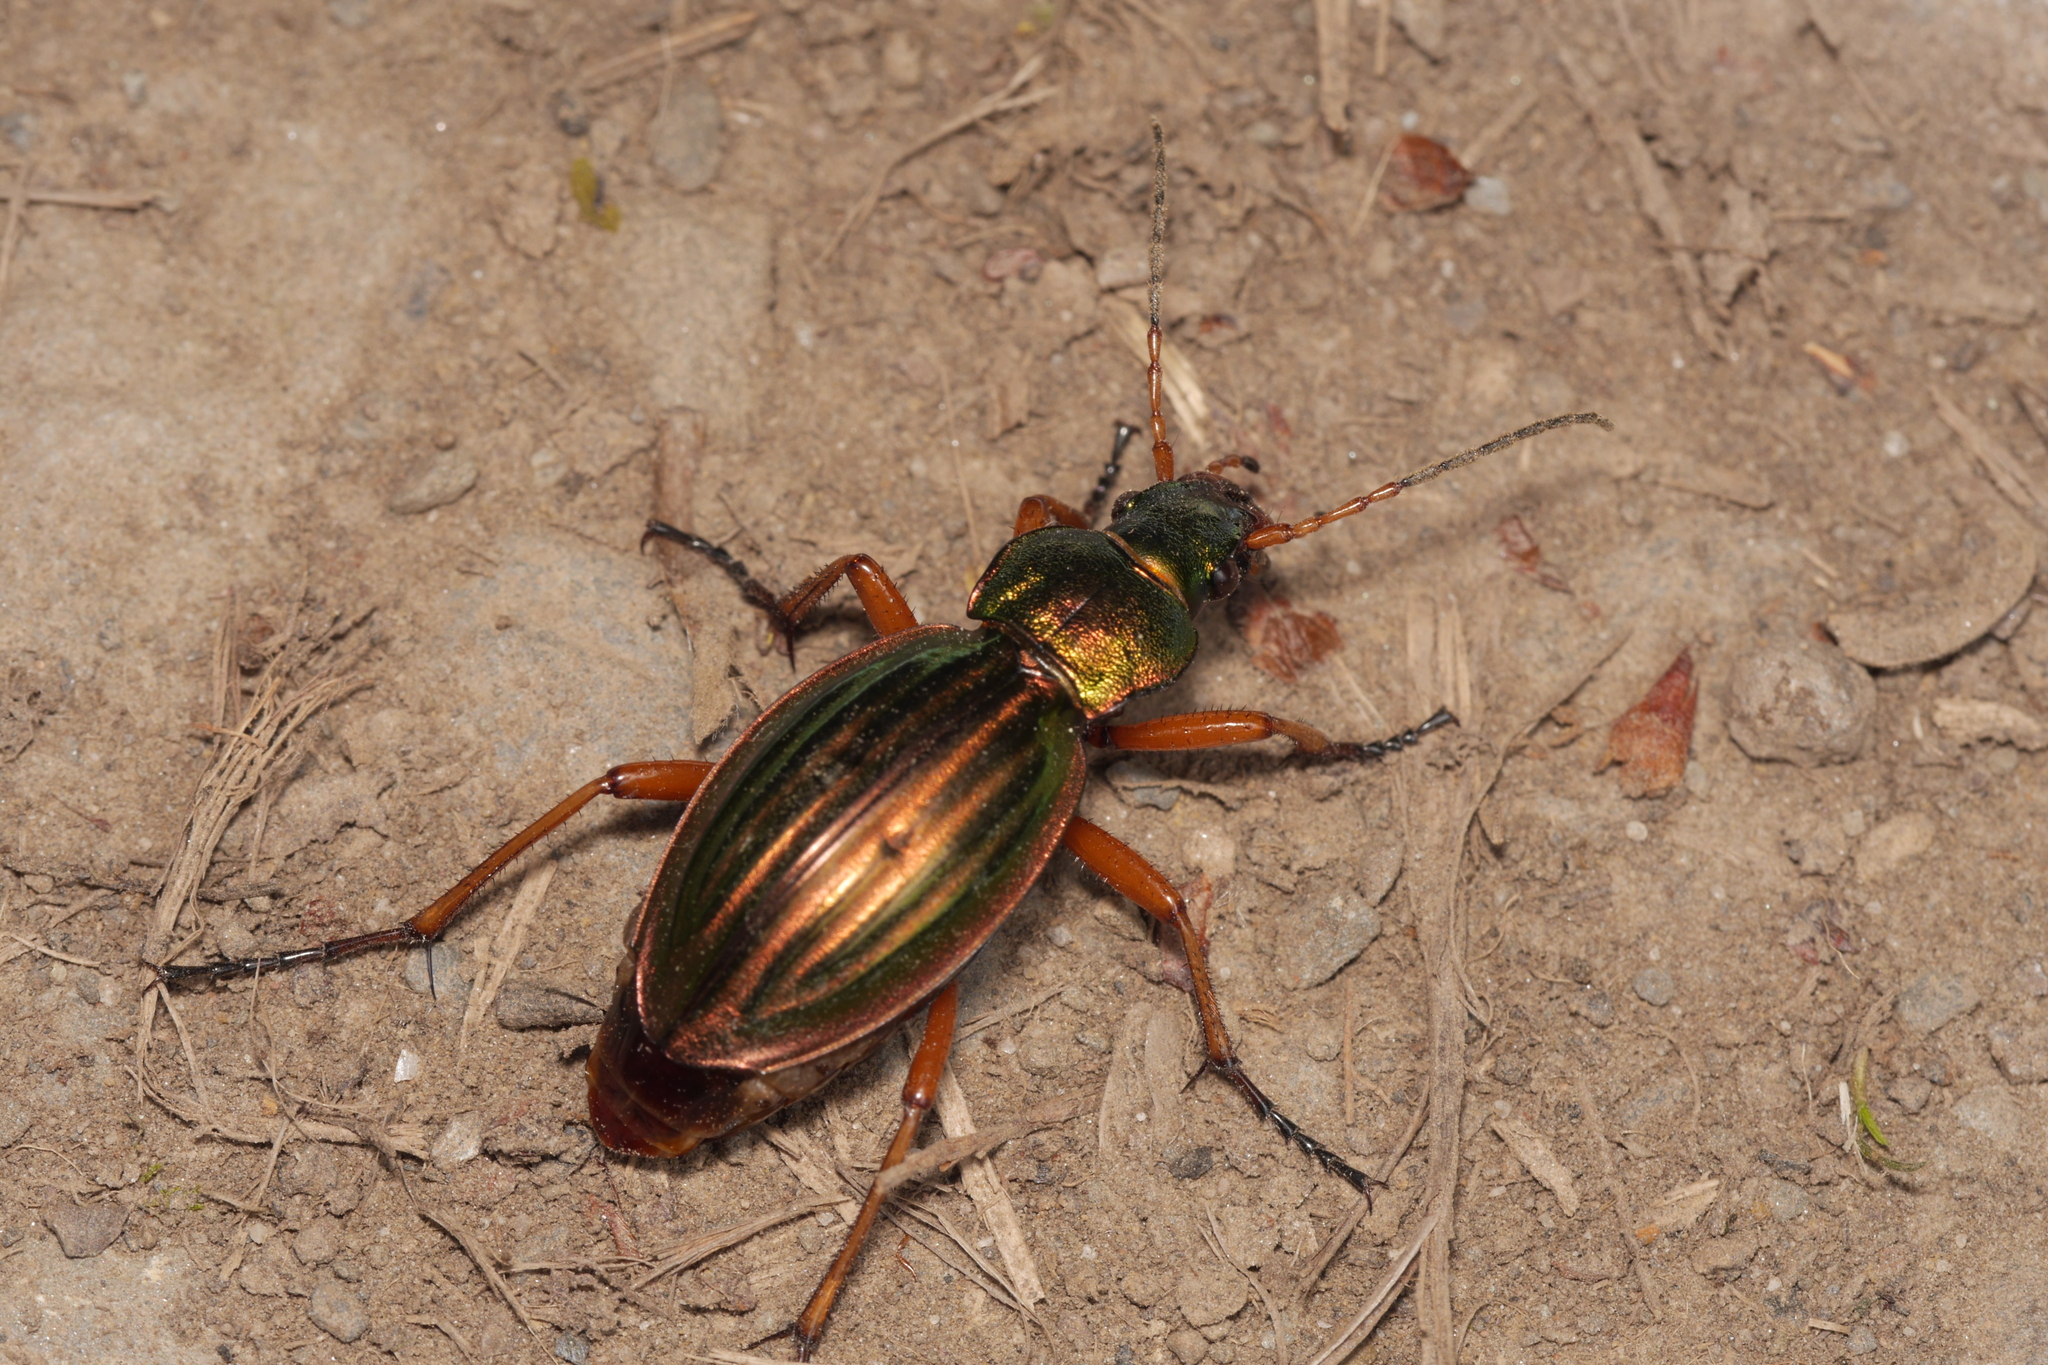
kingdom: Animalia
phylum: Arthropoda
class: Insecta
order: Coleoptera
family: Carabidae
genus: Carabus
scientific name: Carabus auratus
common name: Golden ground beetle
